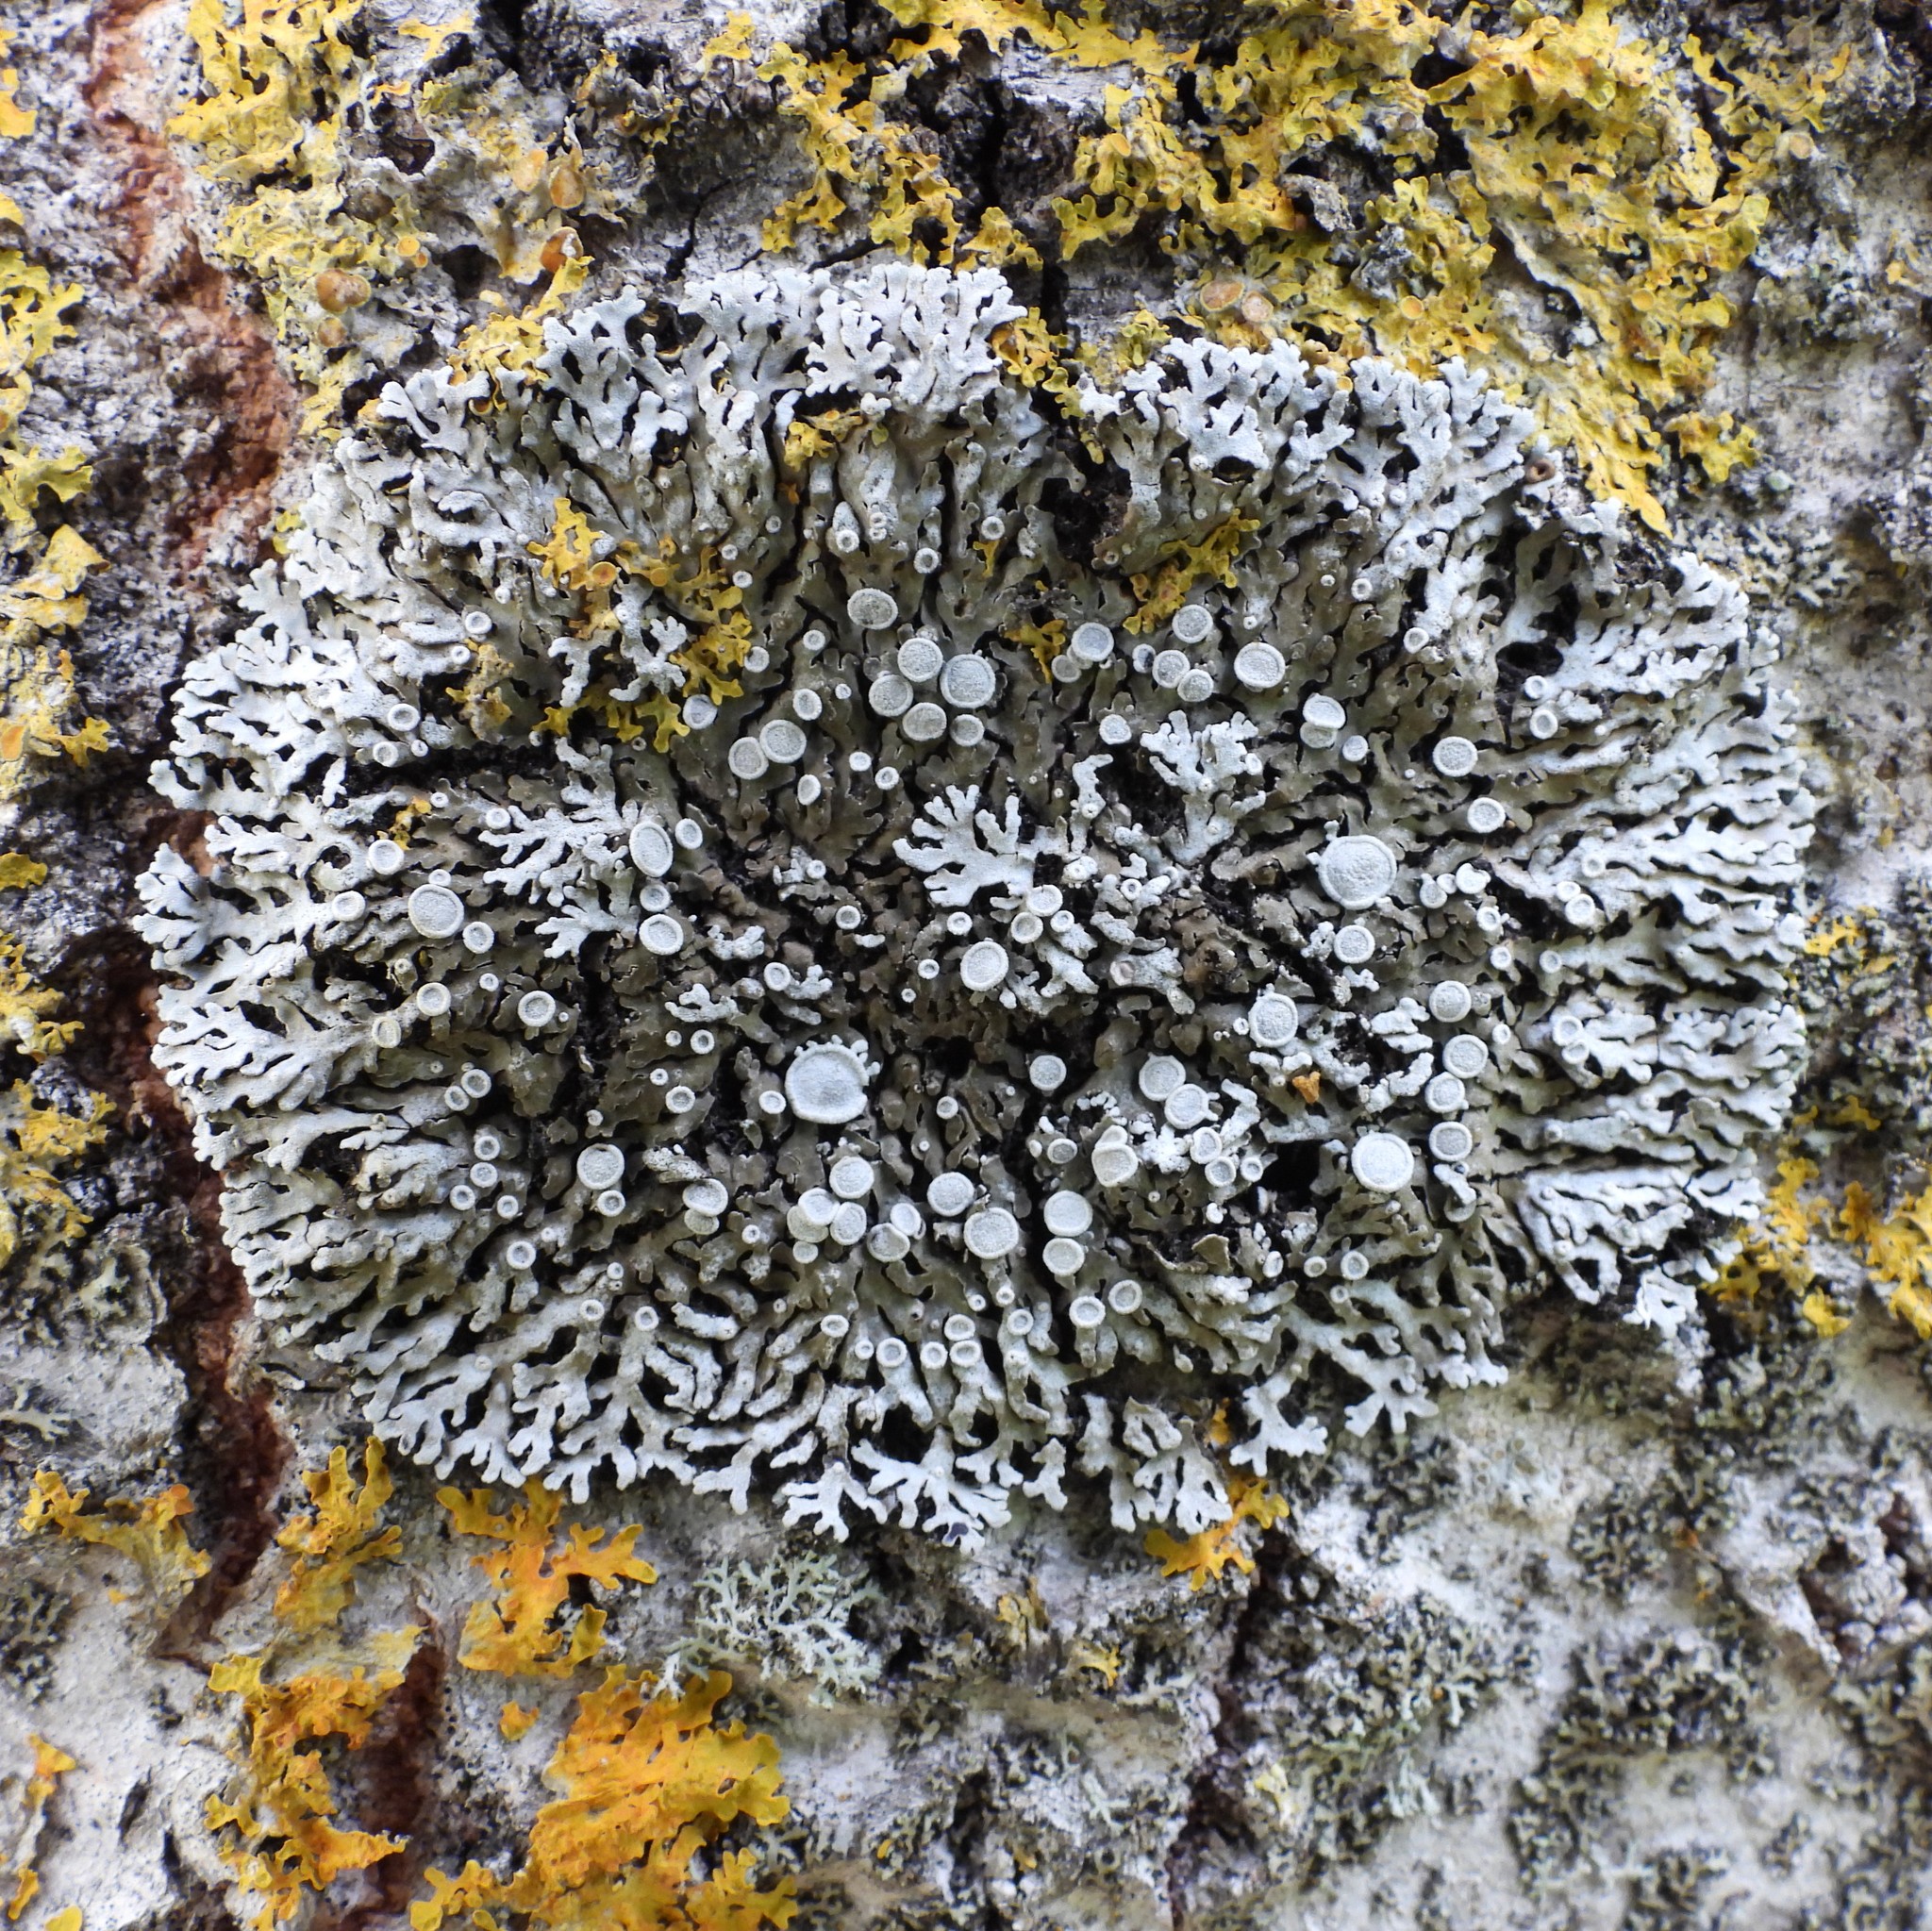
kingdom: Fungi
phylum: Ascomycota
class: Lecanoromycetes
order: Caliciales
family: Physciaceae
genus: Physconia
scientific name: Physconia distorta
